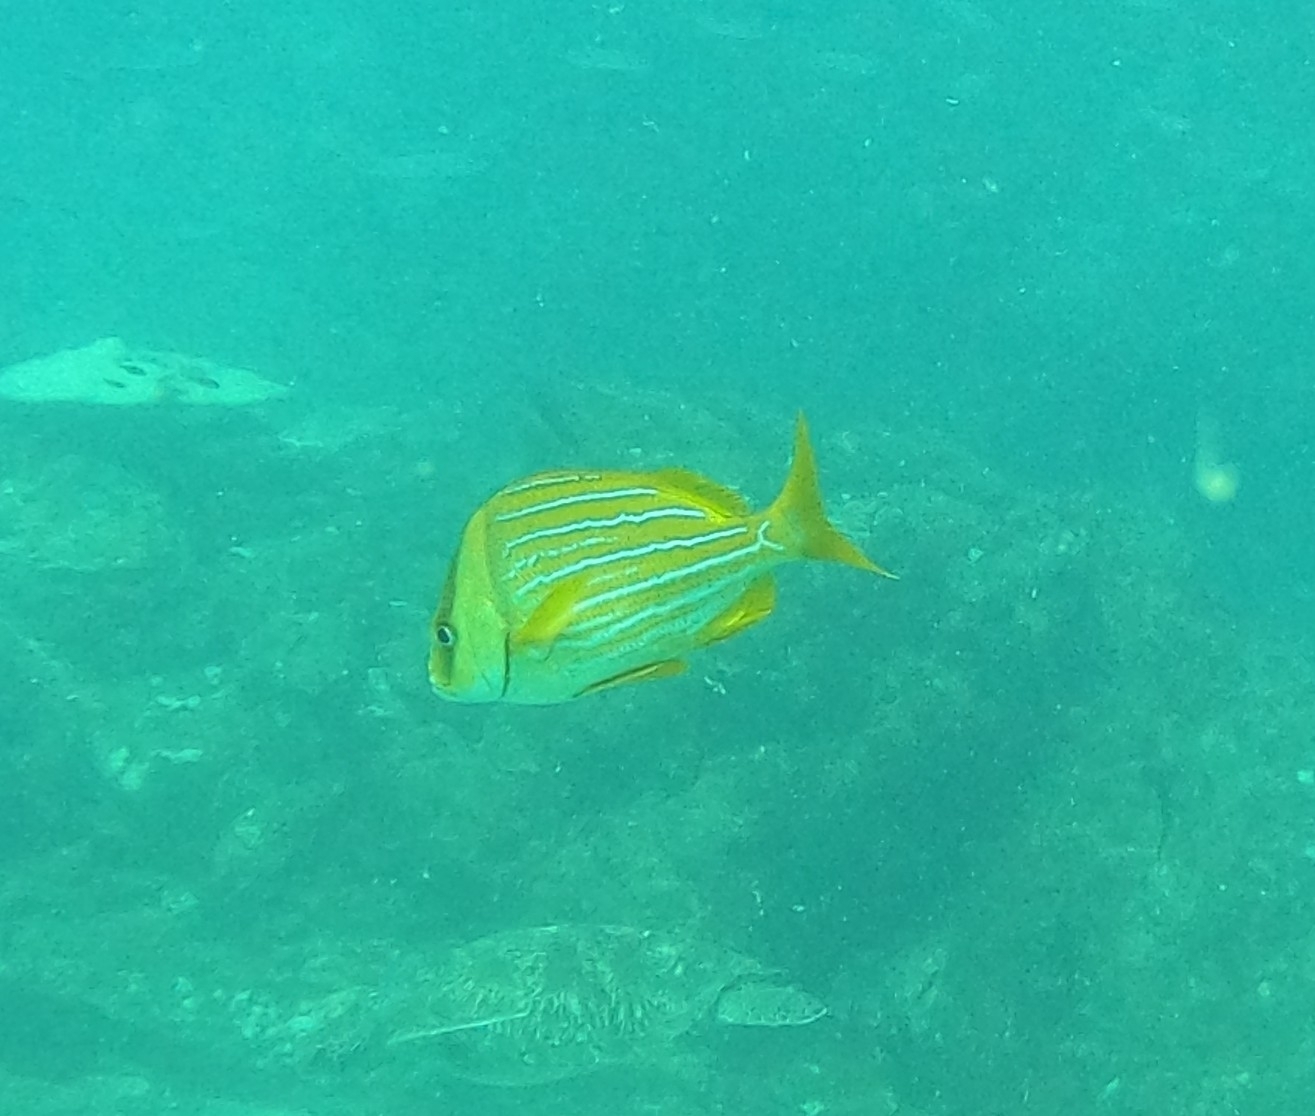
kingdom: Animalia
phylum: Chordata
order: Perciformes
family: Haemulidae
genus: Anisotremus
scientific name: Anisotremus taeniatus
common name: Catalina
